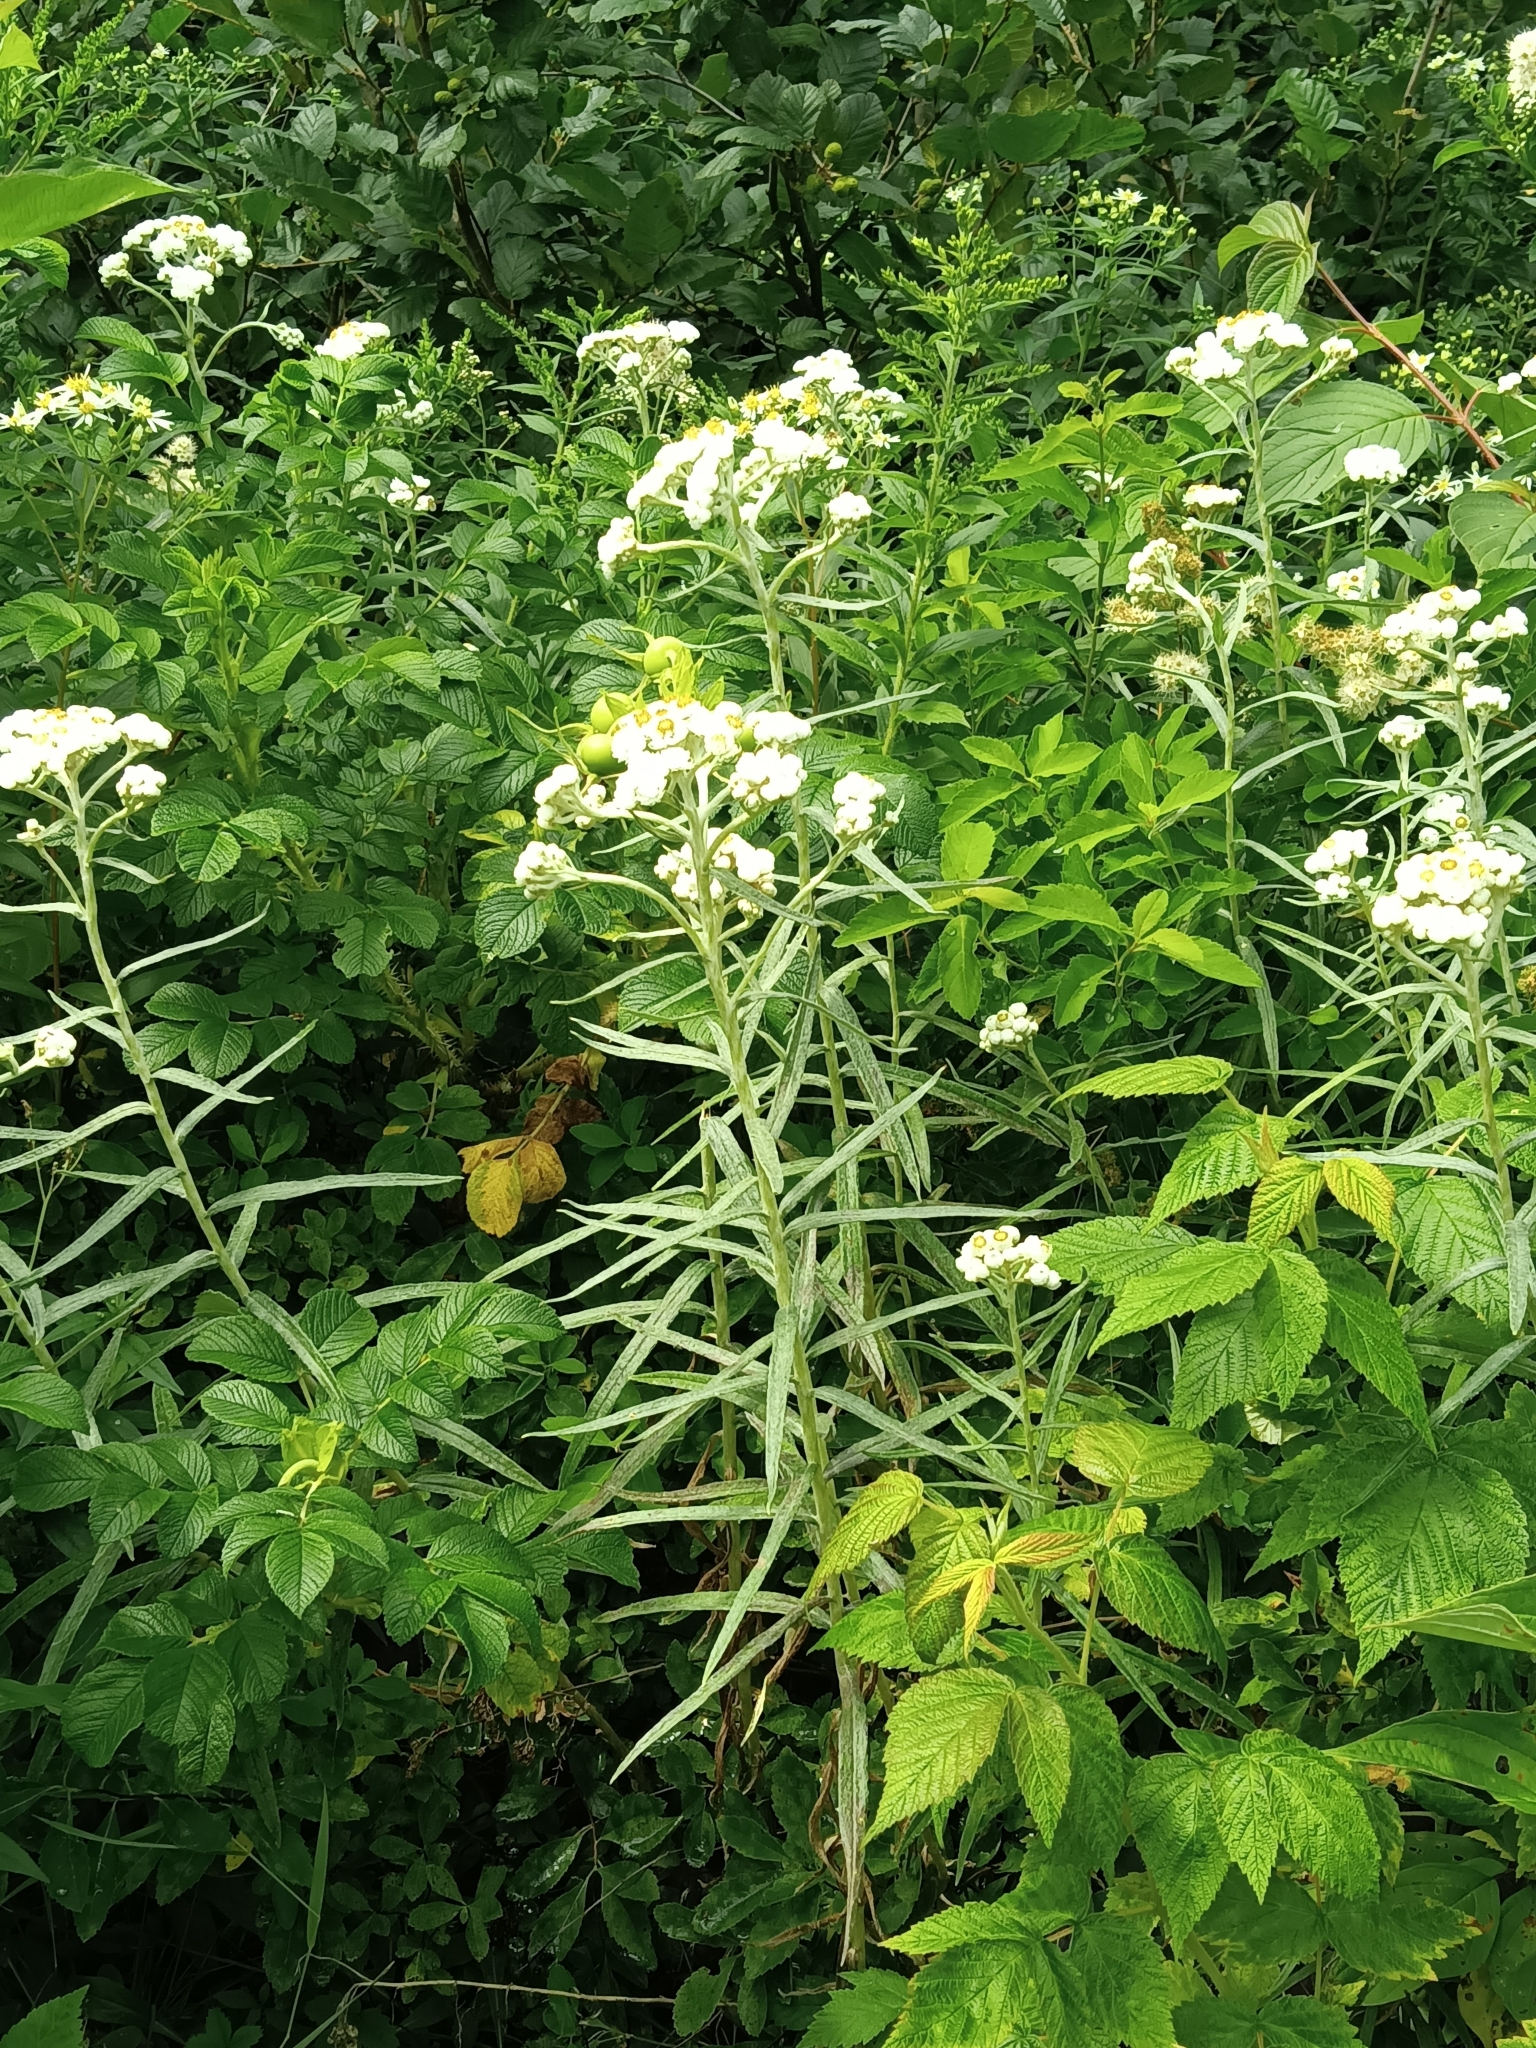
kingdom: Plantae
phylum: Tracheophyta
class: Magnoliopsida
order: Asterales
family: Asteraceae
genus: Anaphalis
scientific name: Anaphalis margaritacea
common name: Pearly everlasting
